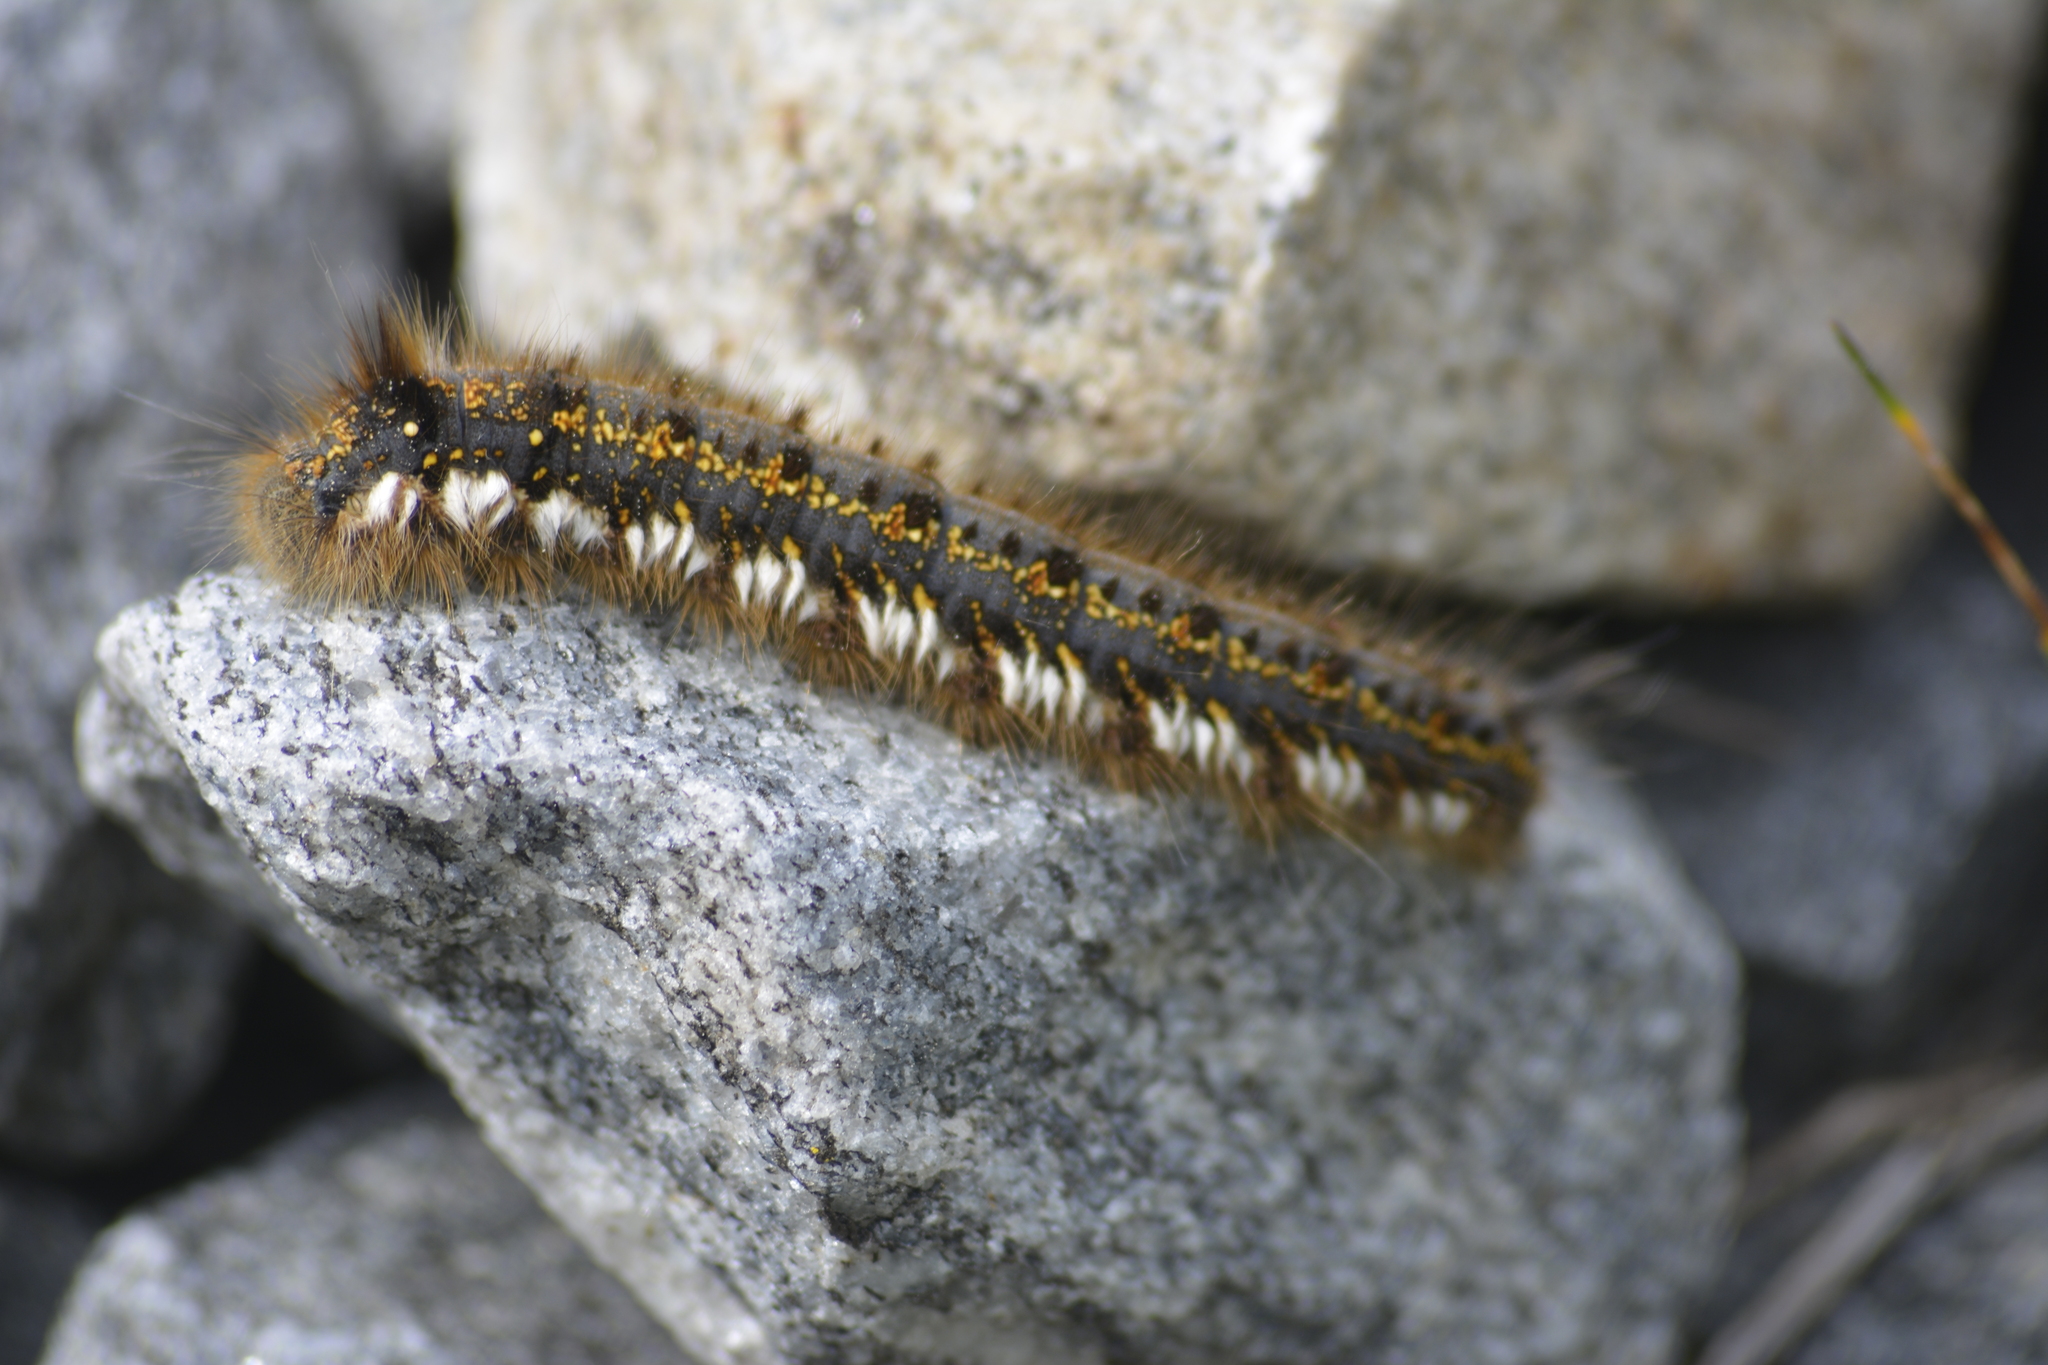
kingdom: Animalia
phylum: Arthropoda
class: Insecta
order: Lepidoptera
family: Lasiocampidae
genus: Euthrix
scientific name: Euthrix potatoria
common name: Drinker
